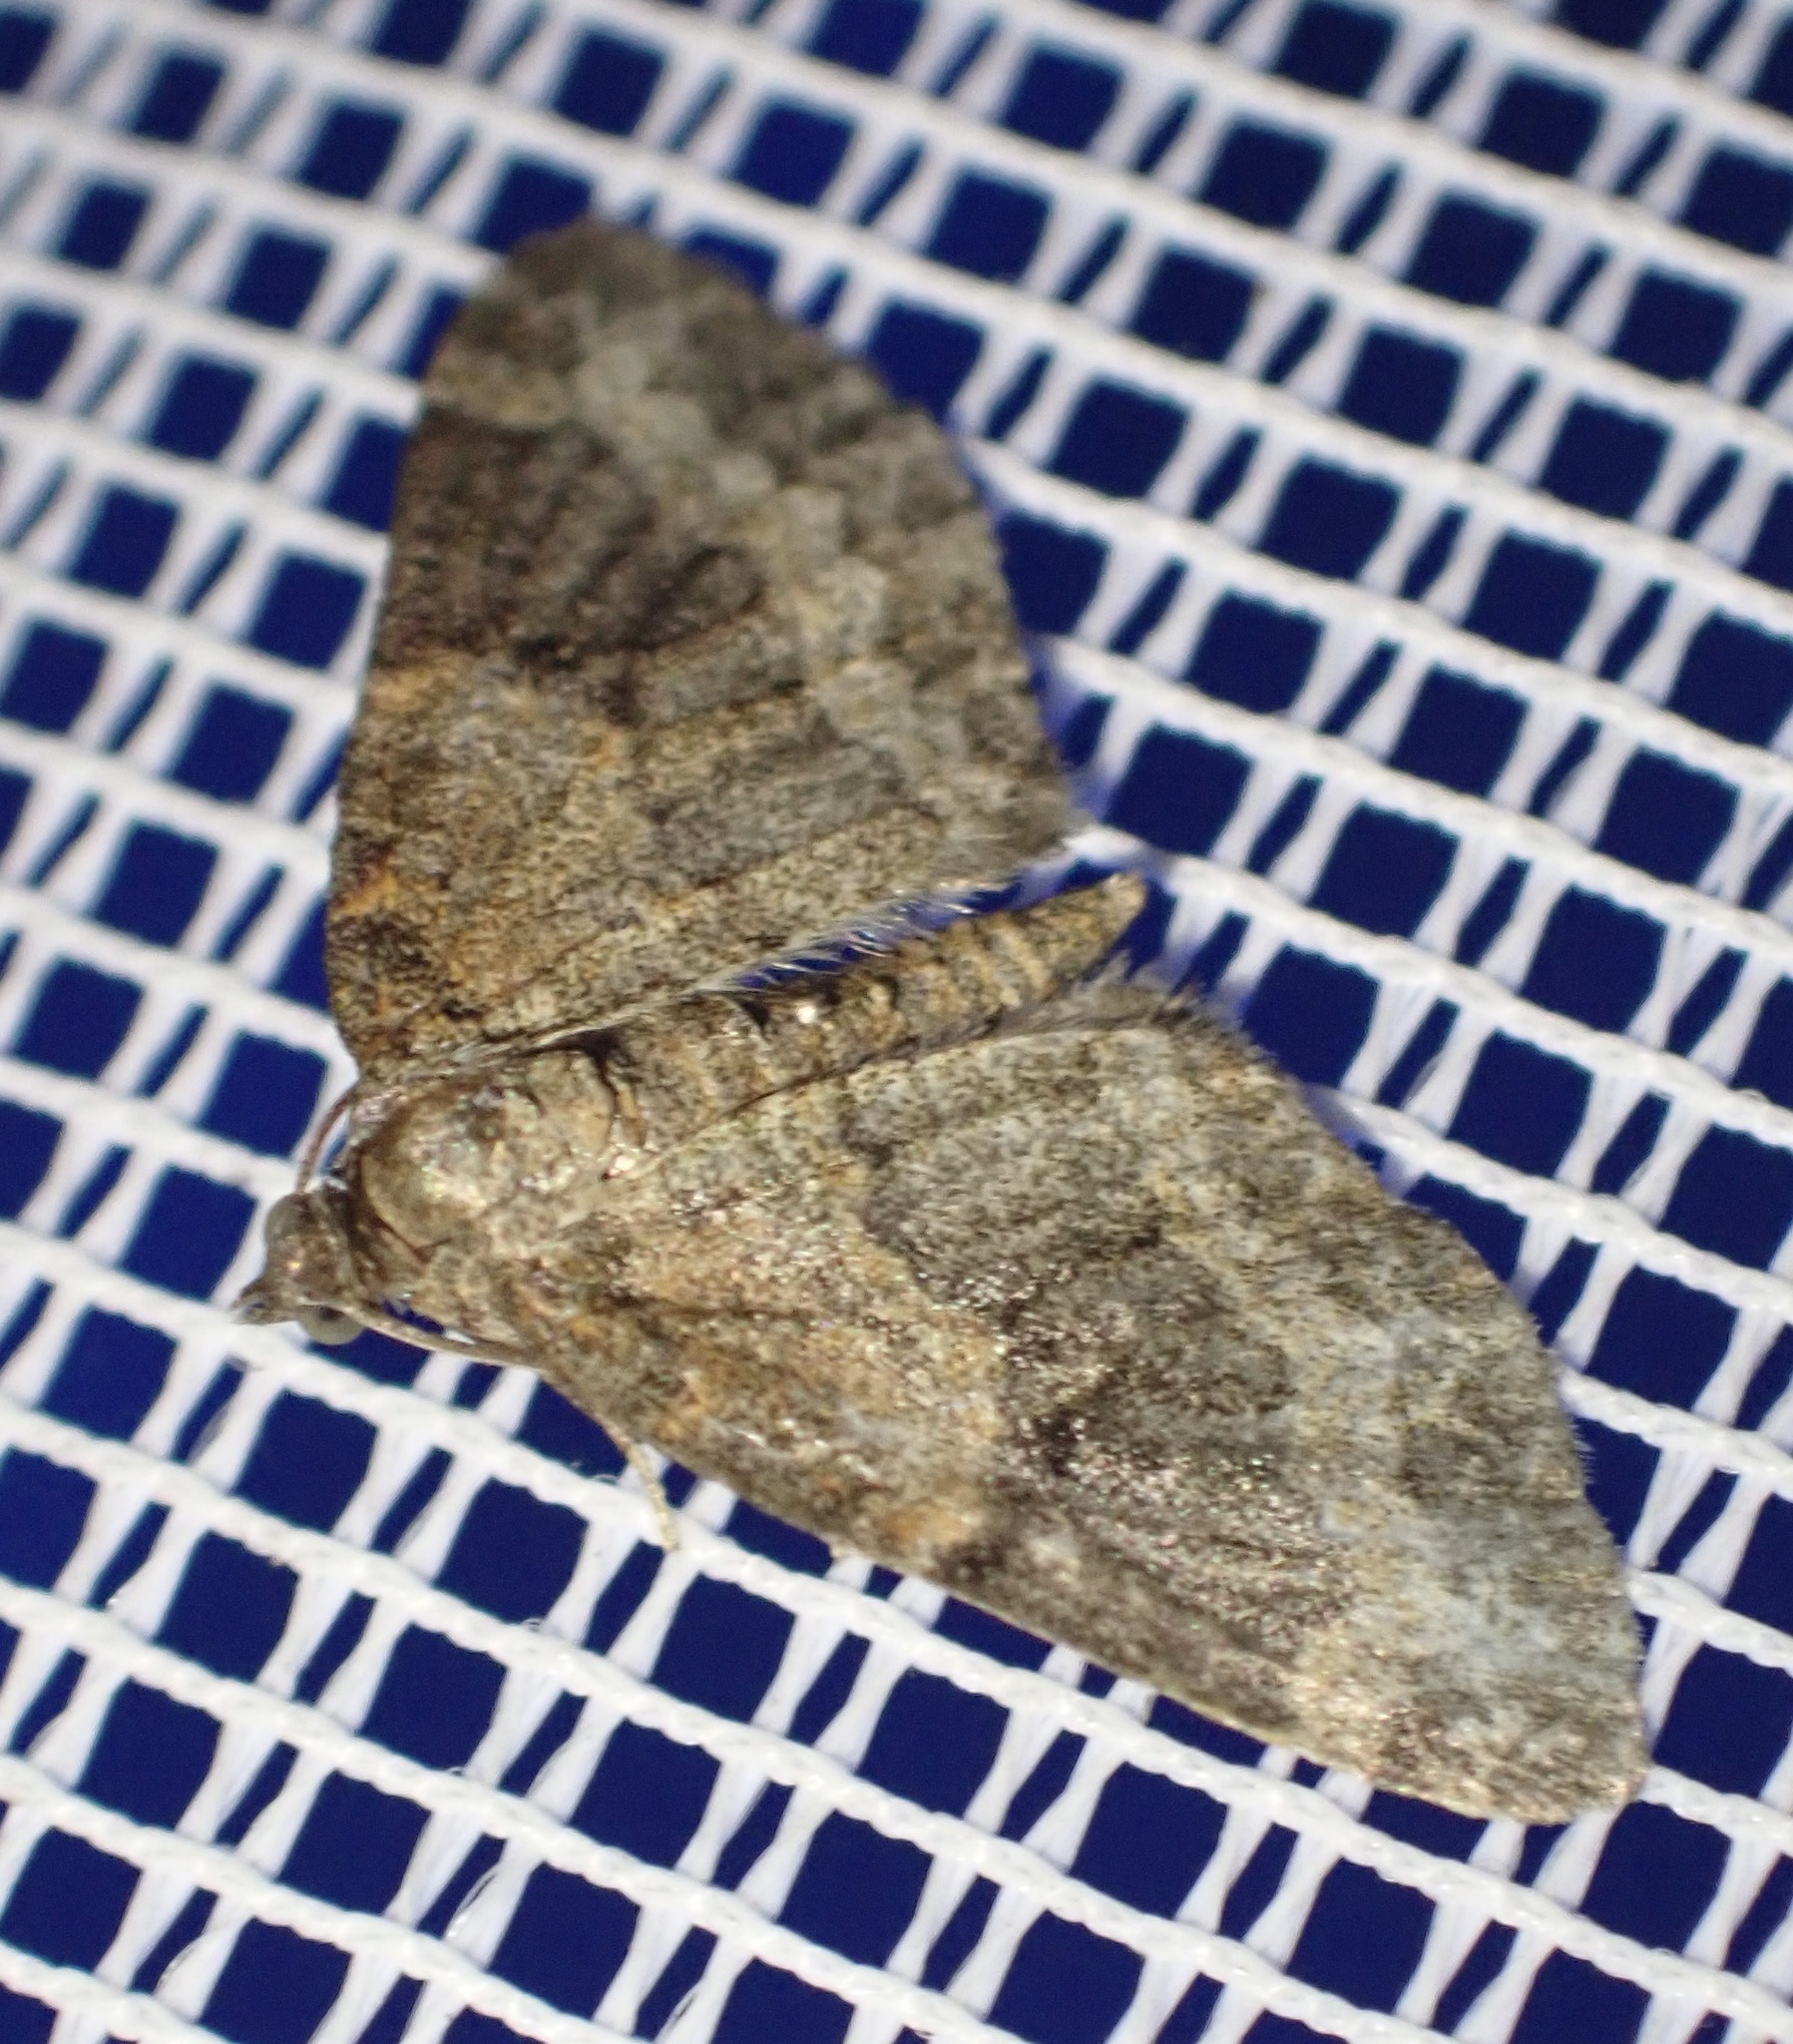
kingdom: Animalia
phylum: Arthropoda
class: Insecta
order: Lepidoptera
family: Geometridae
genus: Pterapherapteryx
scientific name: Pterapherapteryx sexalata
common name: Small seraphim
